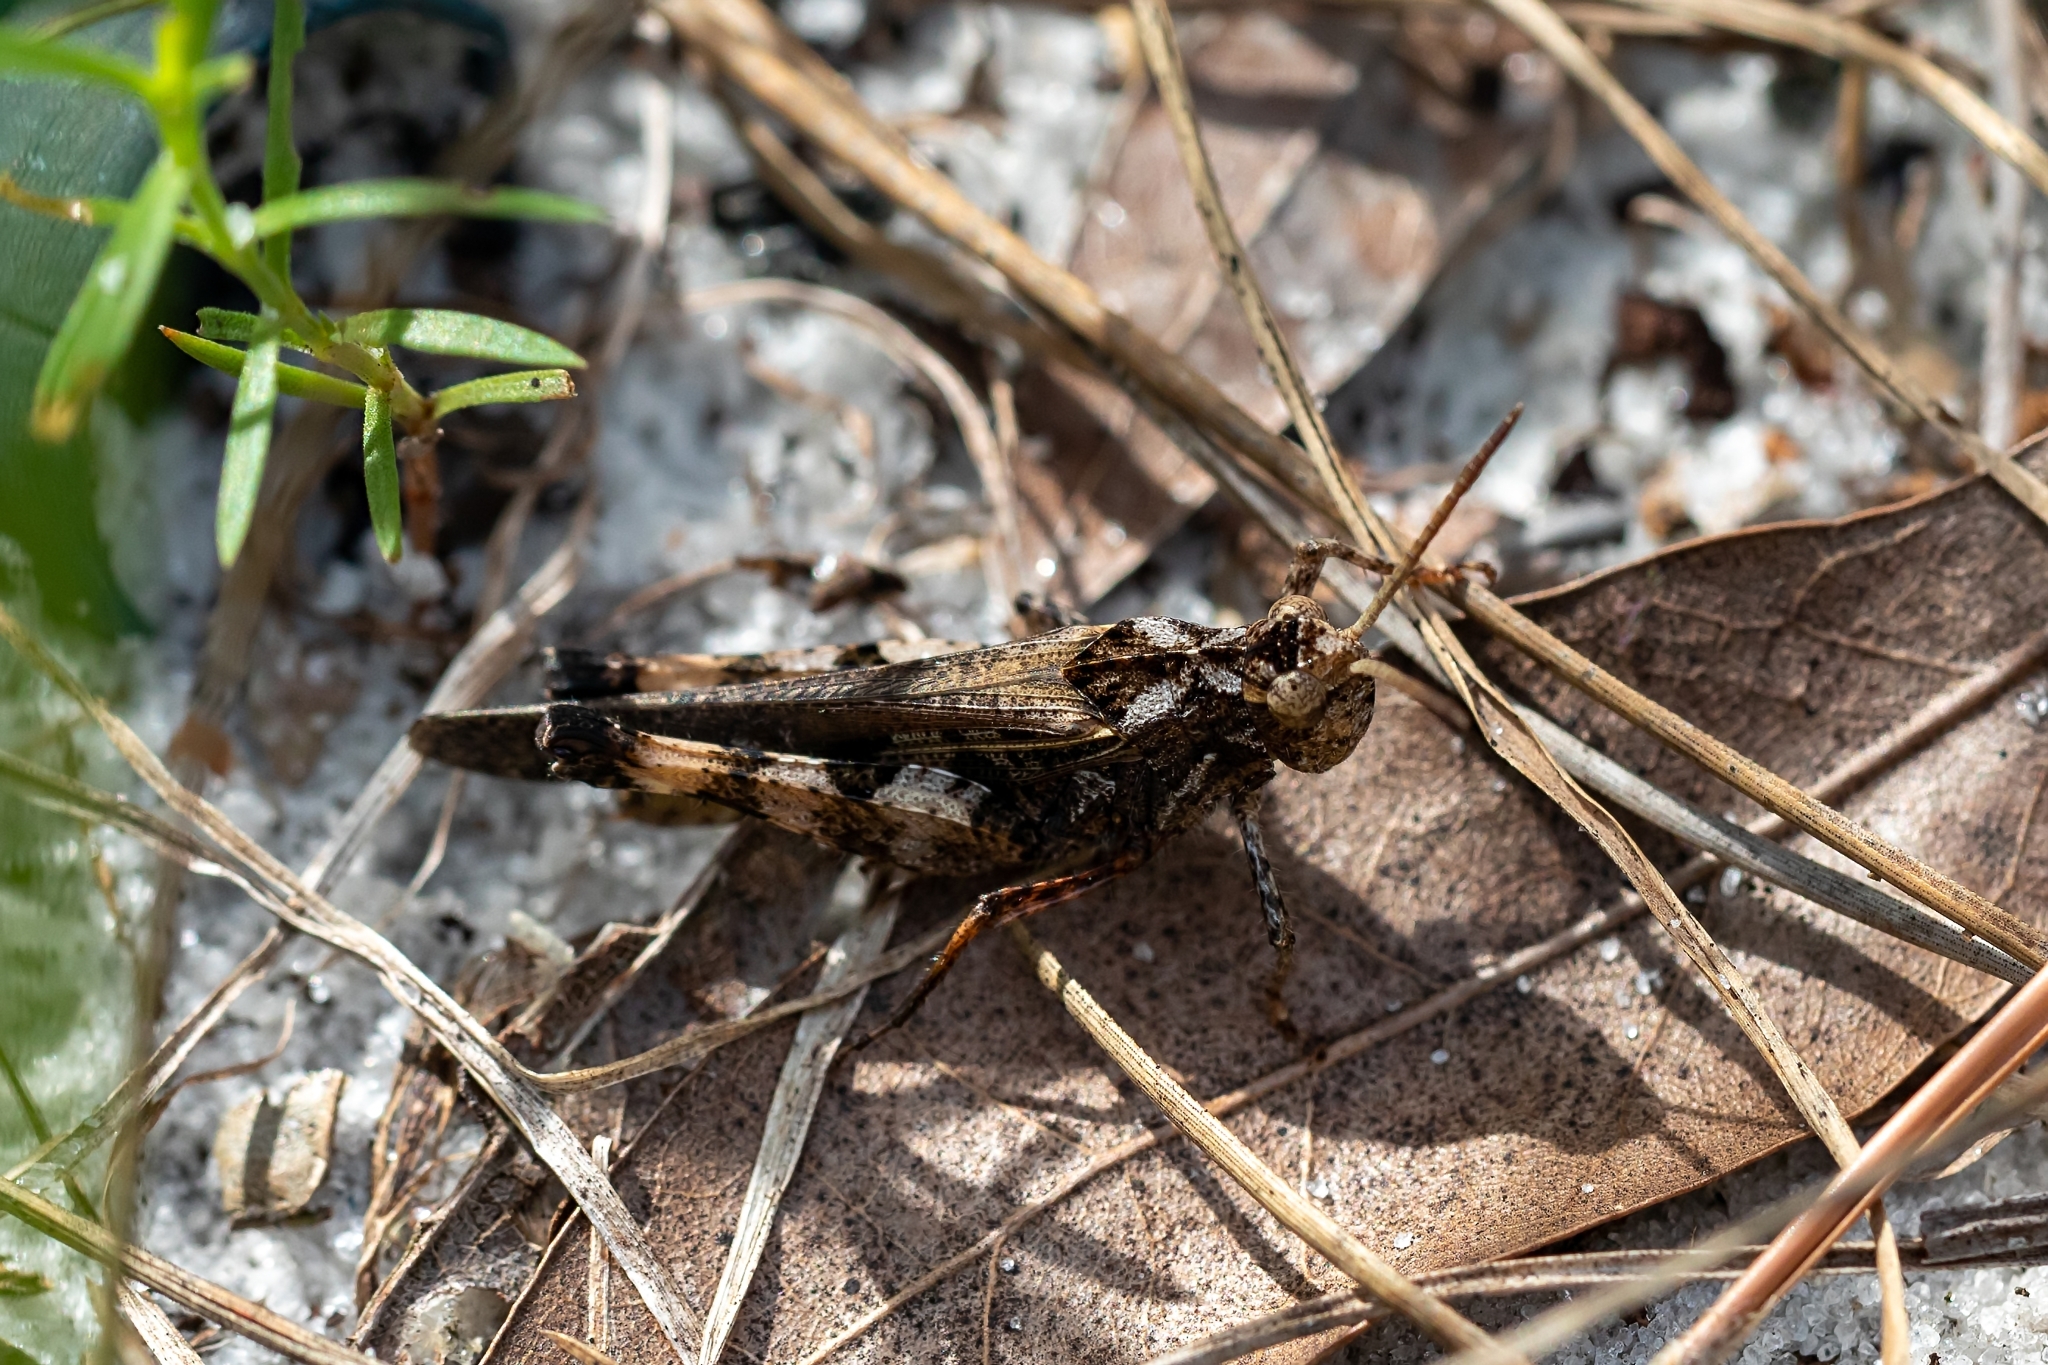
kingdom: Animalia
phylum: Arthropoda
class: Insecta
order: Orthoptera
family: Acrididae
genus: Chortophaga
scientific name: Chortophaga australior
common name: Southern green-striped grasshopper
